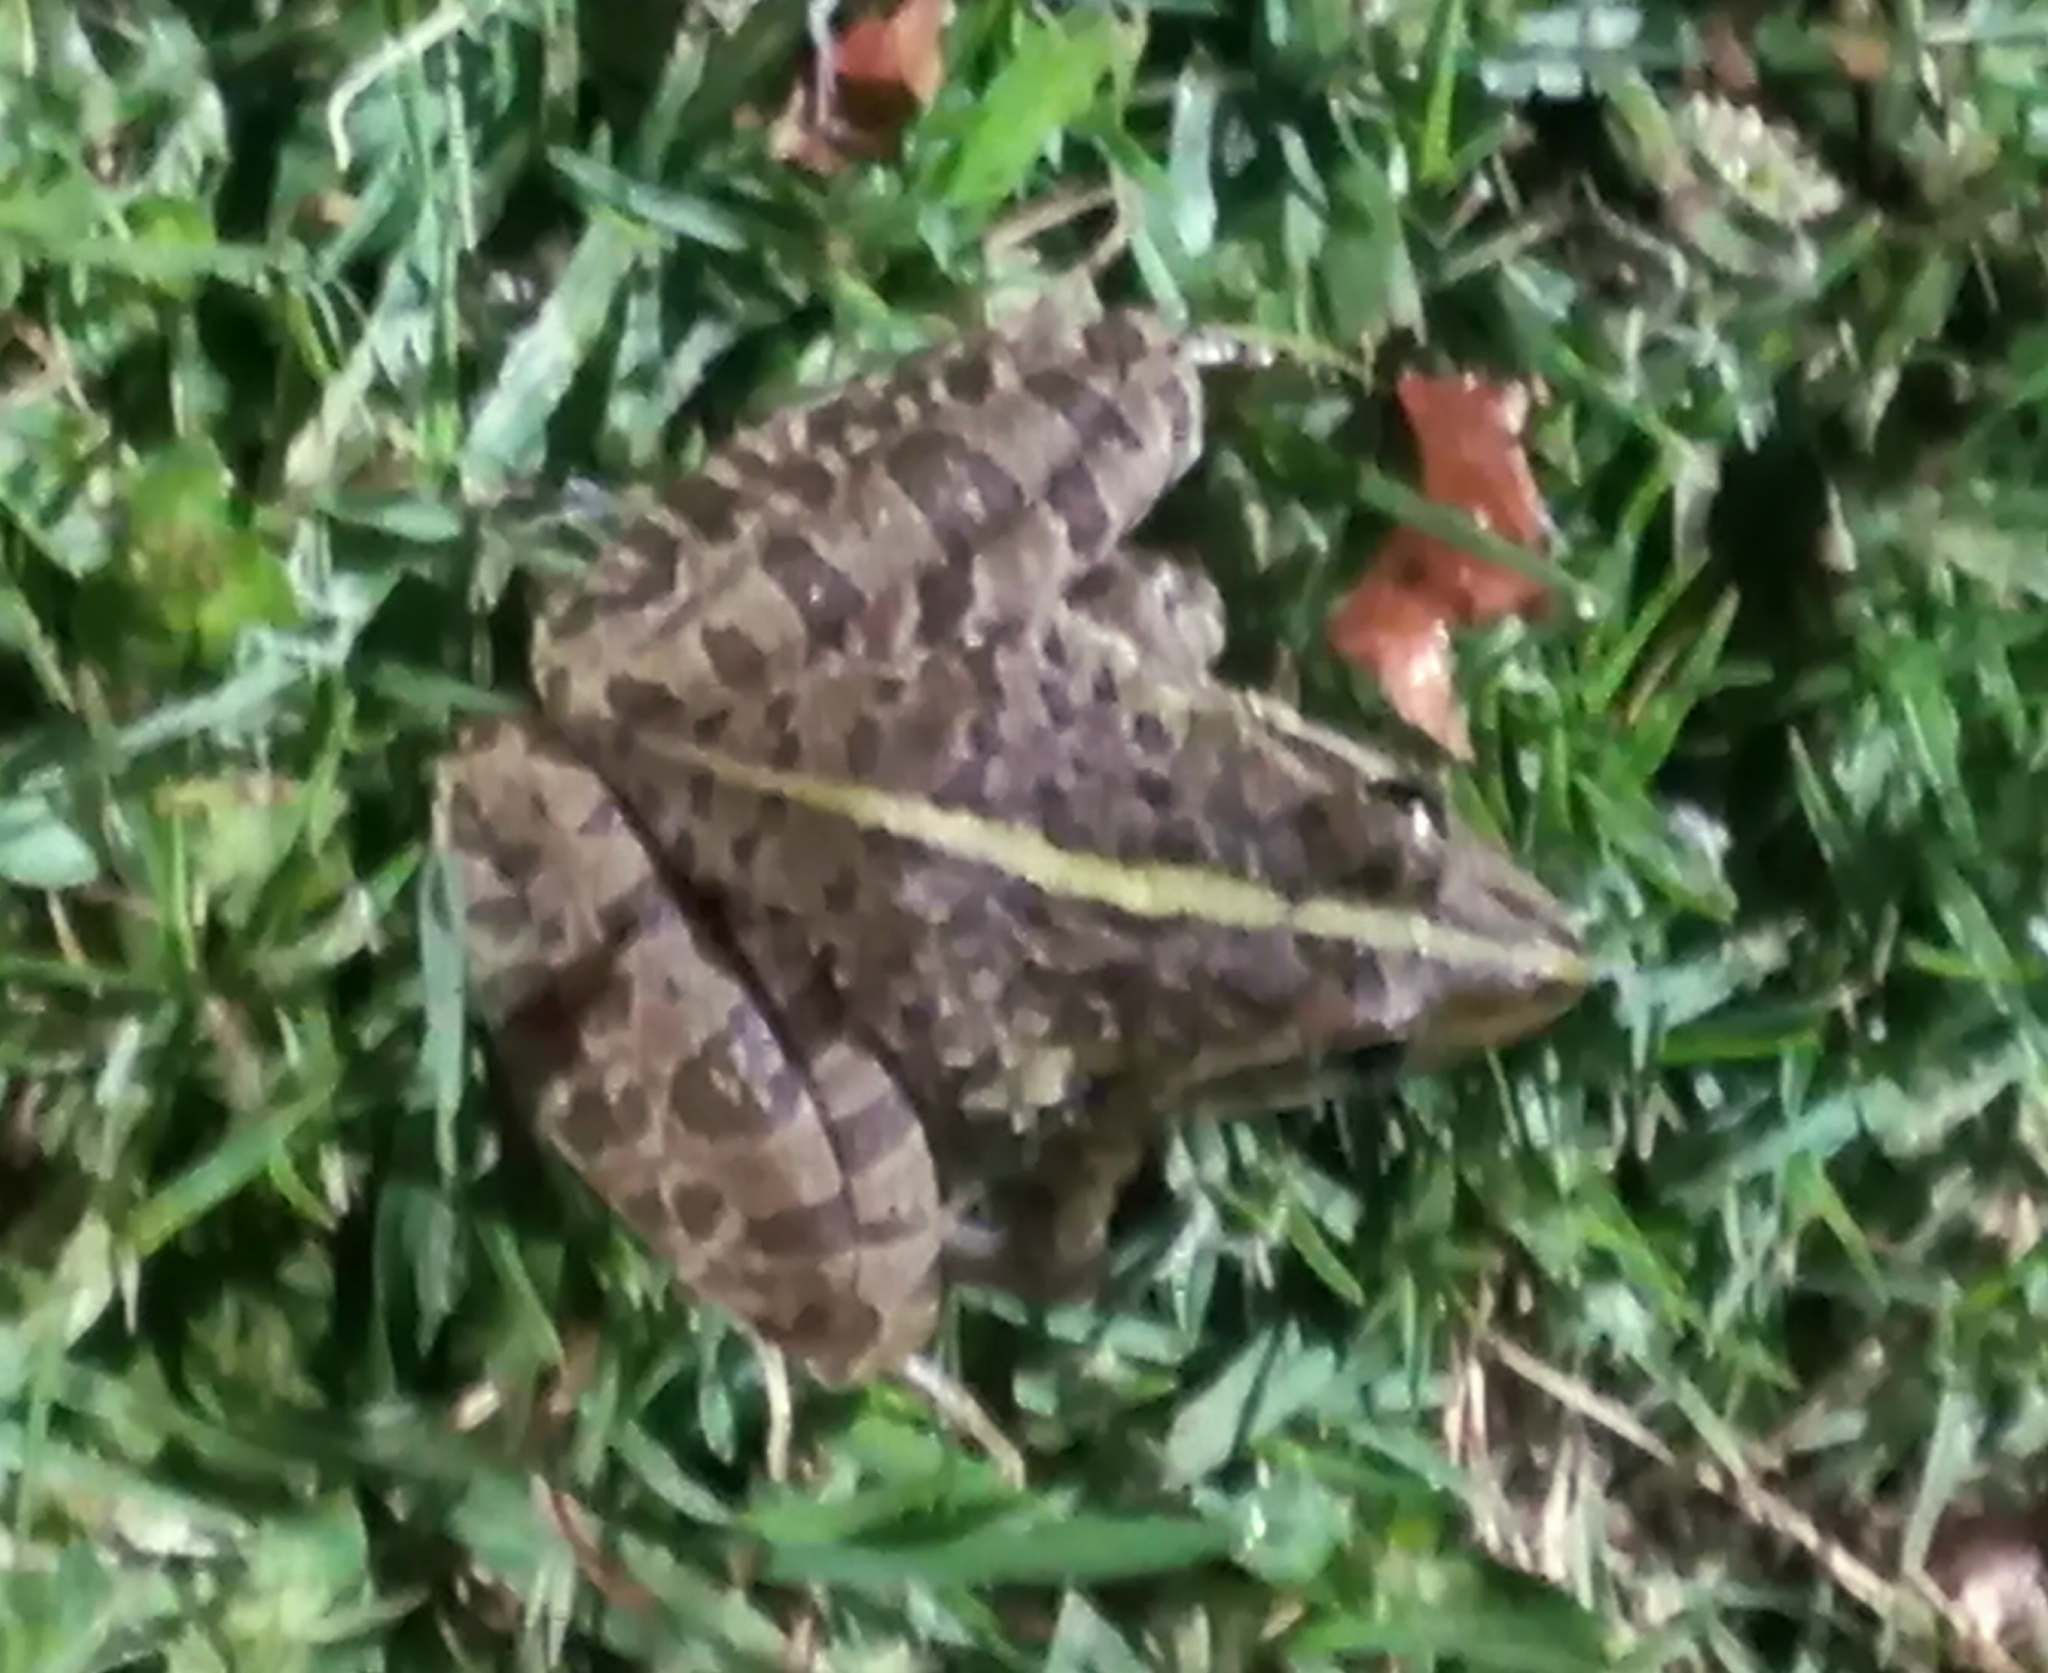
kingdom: Animalia
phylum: Chordata
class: Amphibia
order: Anura
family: Pyxicephalidae
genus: Amietia
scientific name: Amietia delalandii
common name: Delalande's river frog
